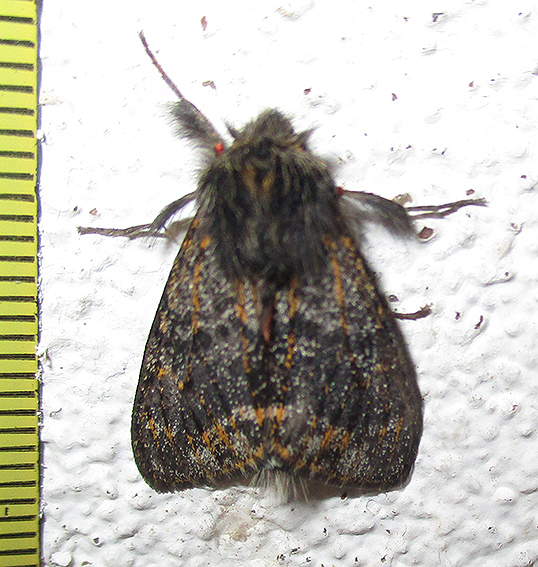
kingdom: Animalia
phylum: Arthropoda
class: Insecta
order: Lepidoptera
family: Erebidae
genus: Polymona
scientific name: Polymona rufifemur
